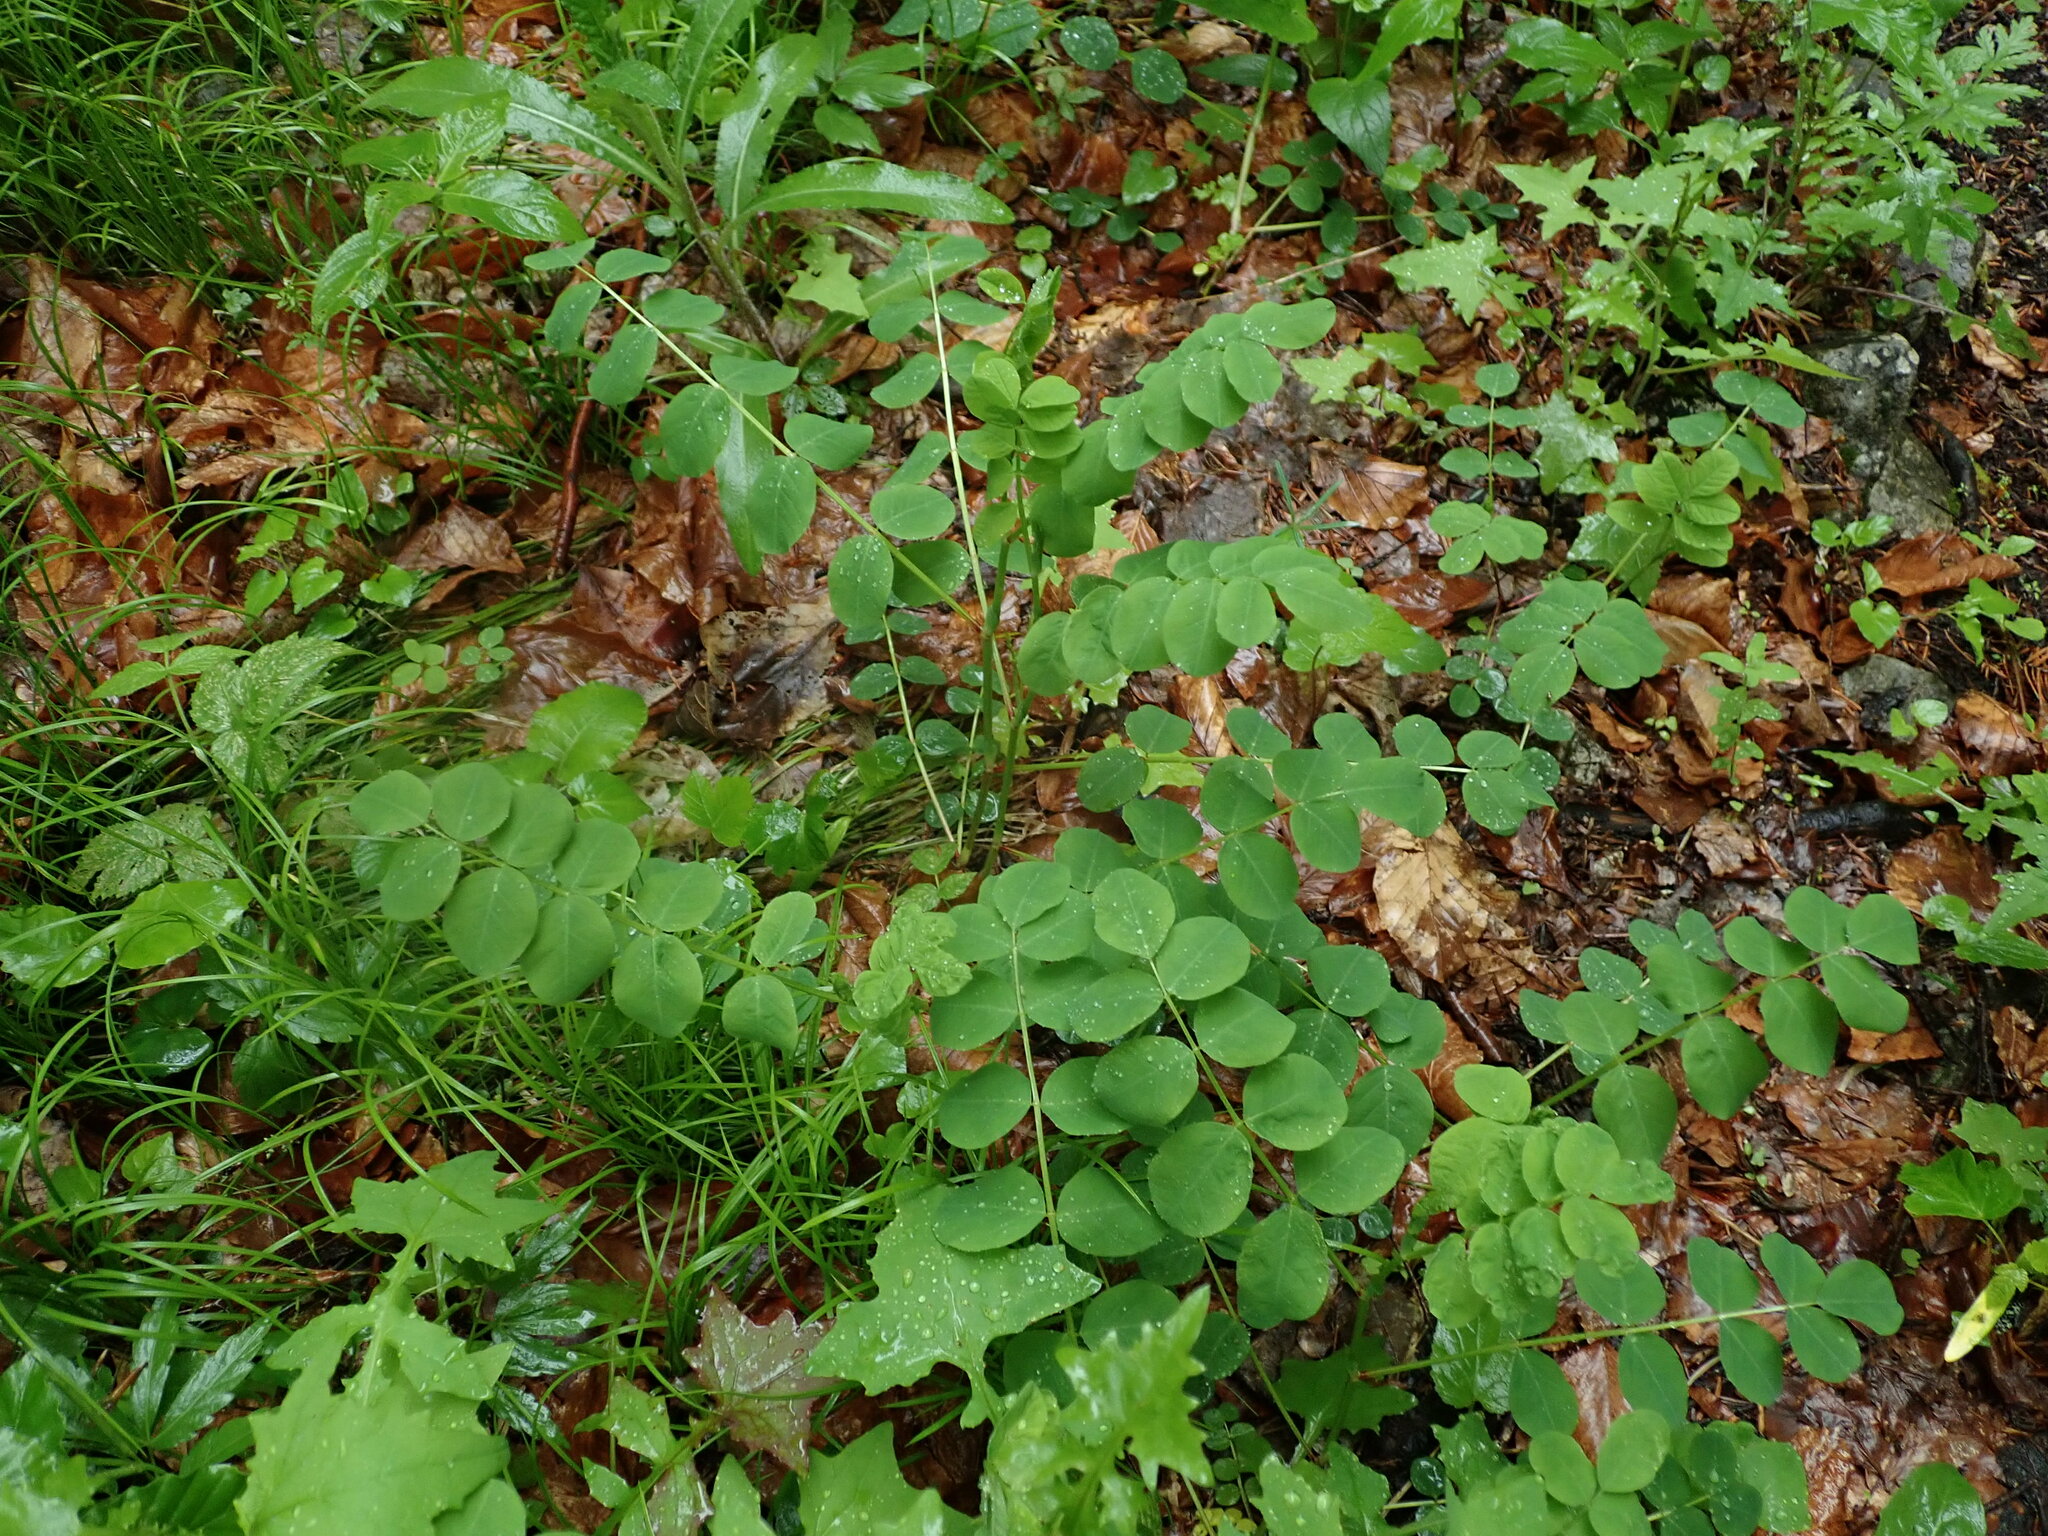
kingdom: Plantae
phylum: Tracheophyta
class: Magnoliopsida
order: Fabales
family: Fabaceae
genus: Astragalus
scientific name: Astragalus glycyphyllos
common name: Wild liquorice
